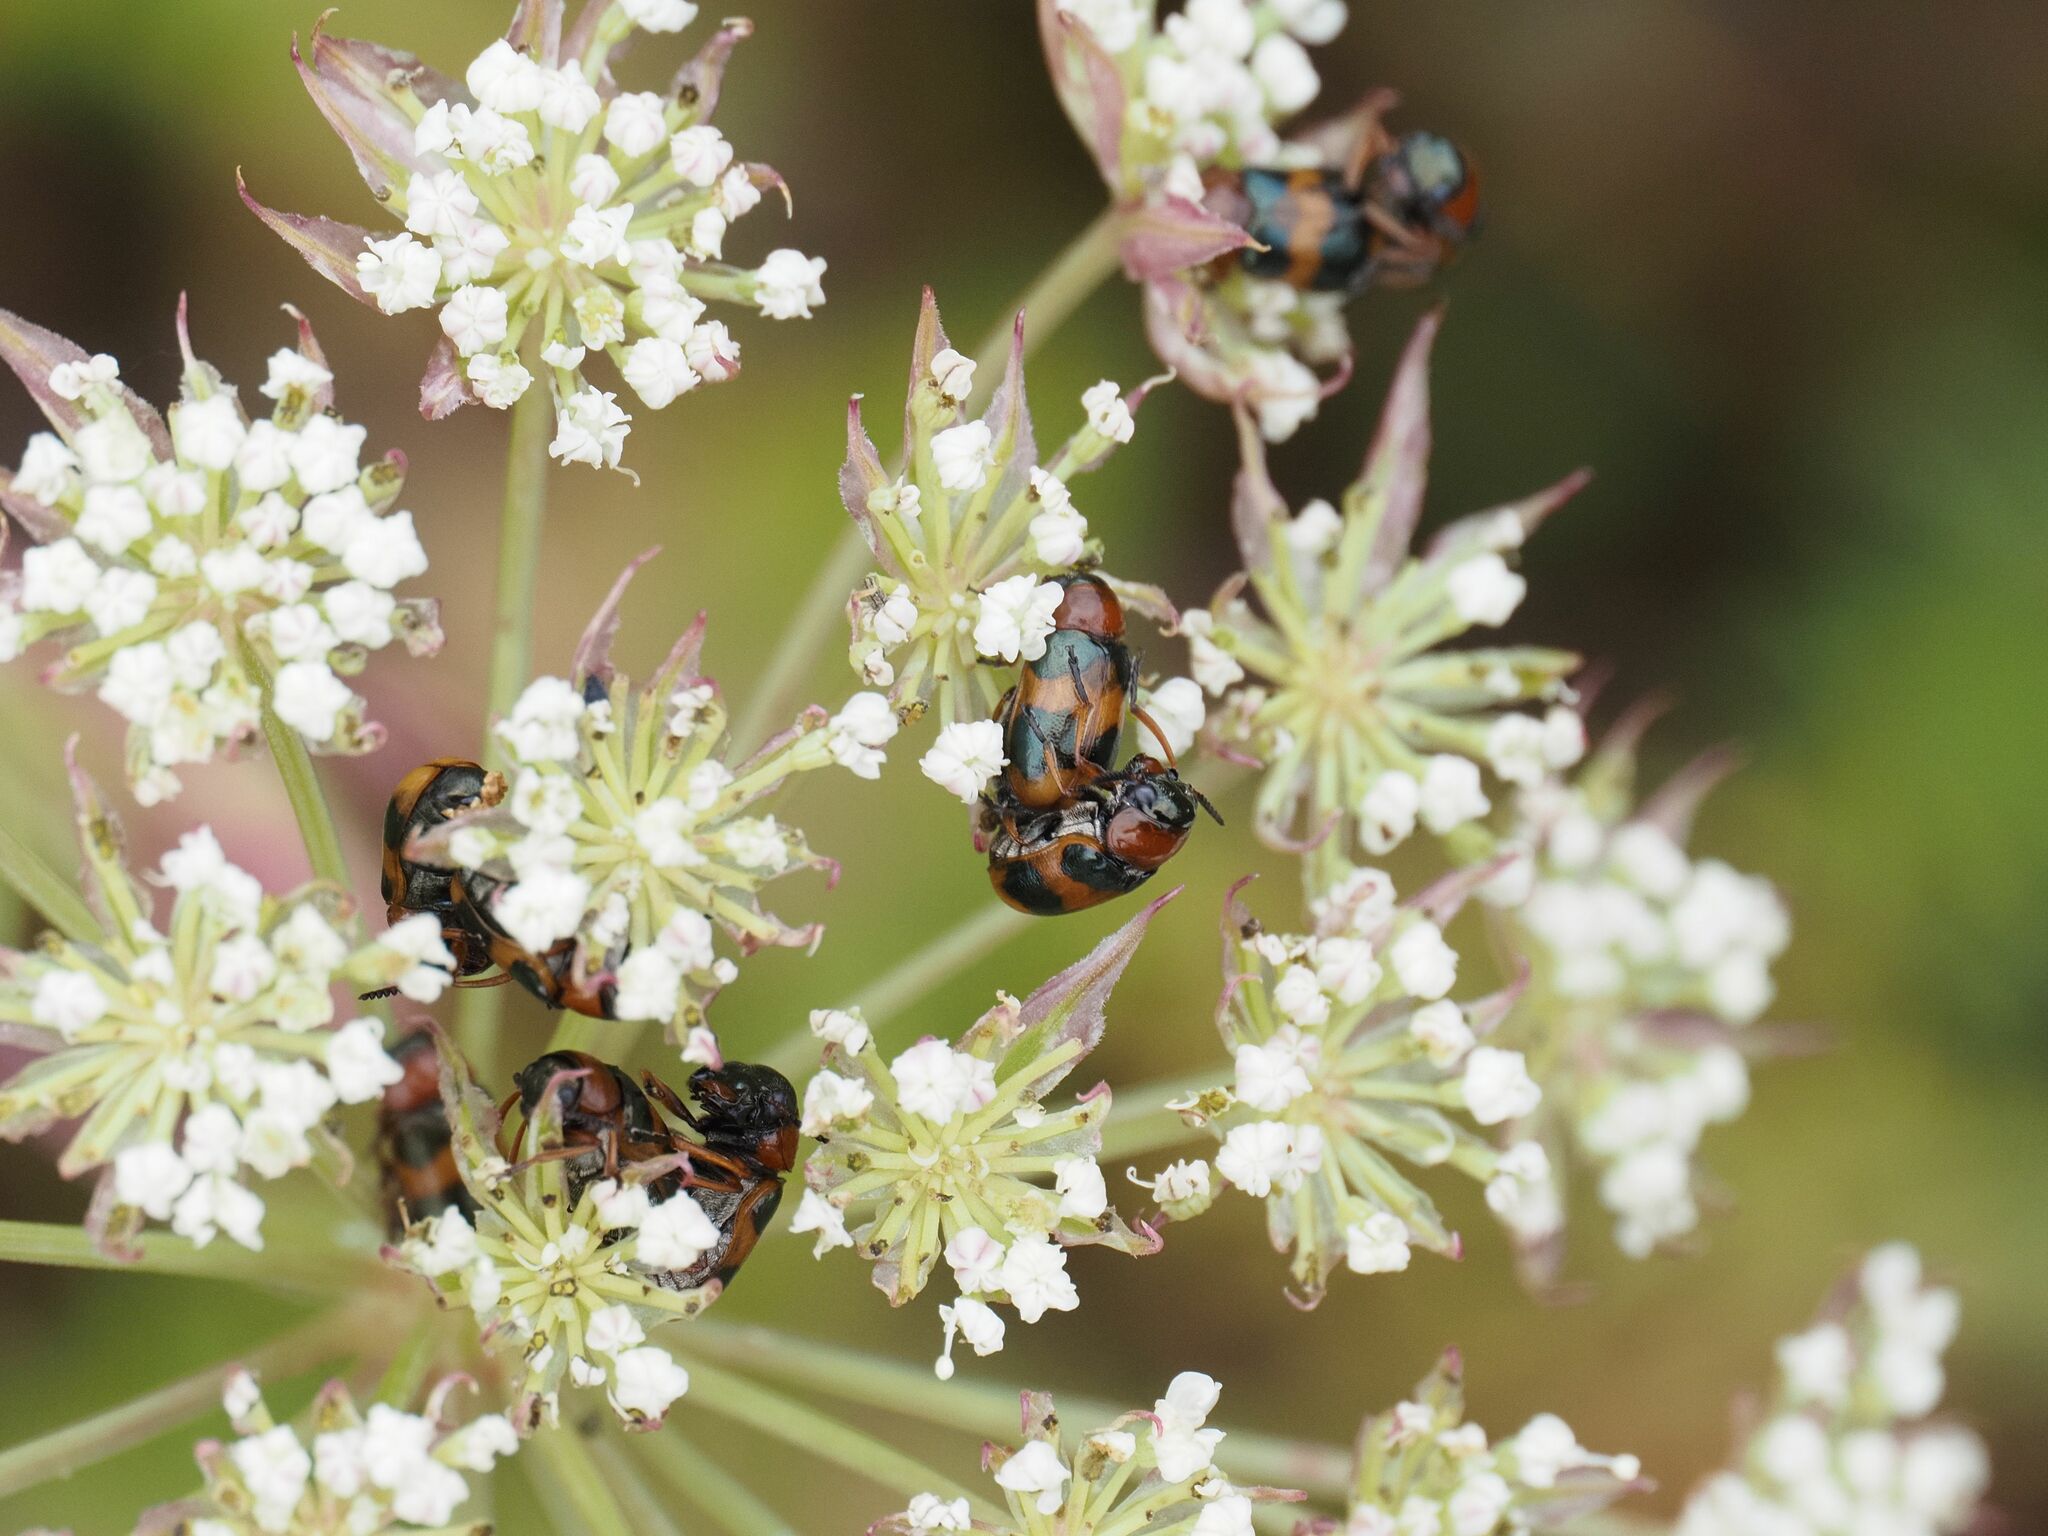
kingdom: Animalia
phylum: Arthropoda
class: Insecta
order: Coleoptera
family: Chrysomelidae
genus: Coptocephala
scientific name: Coptocephala unifasciata
